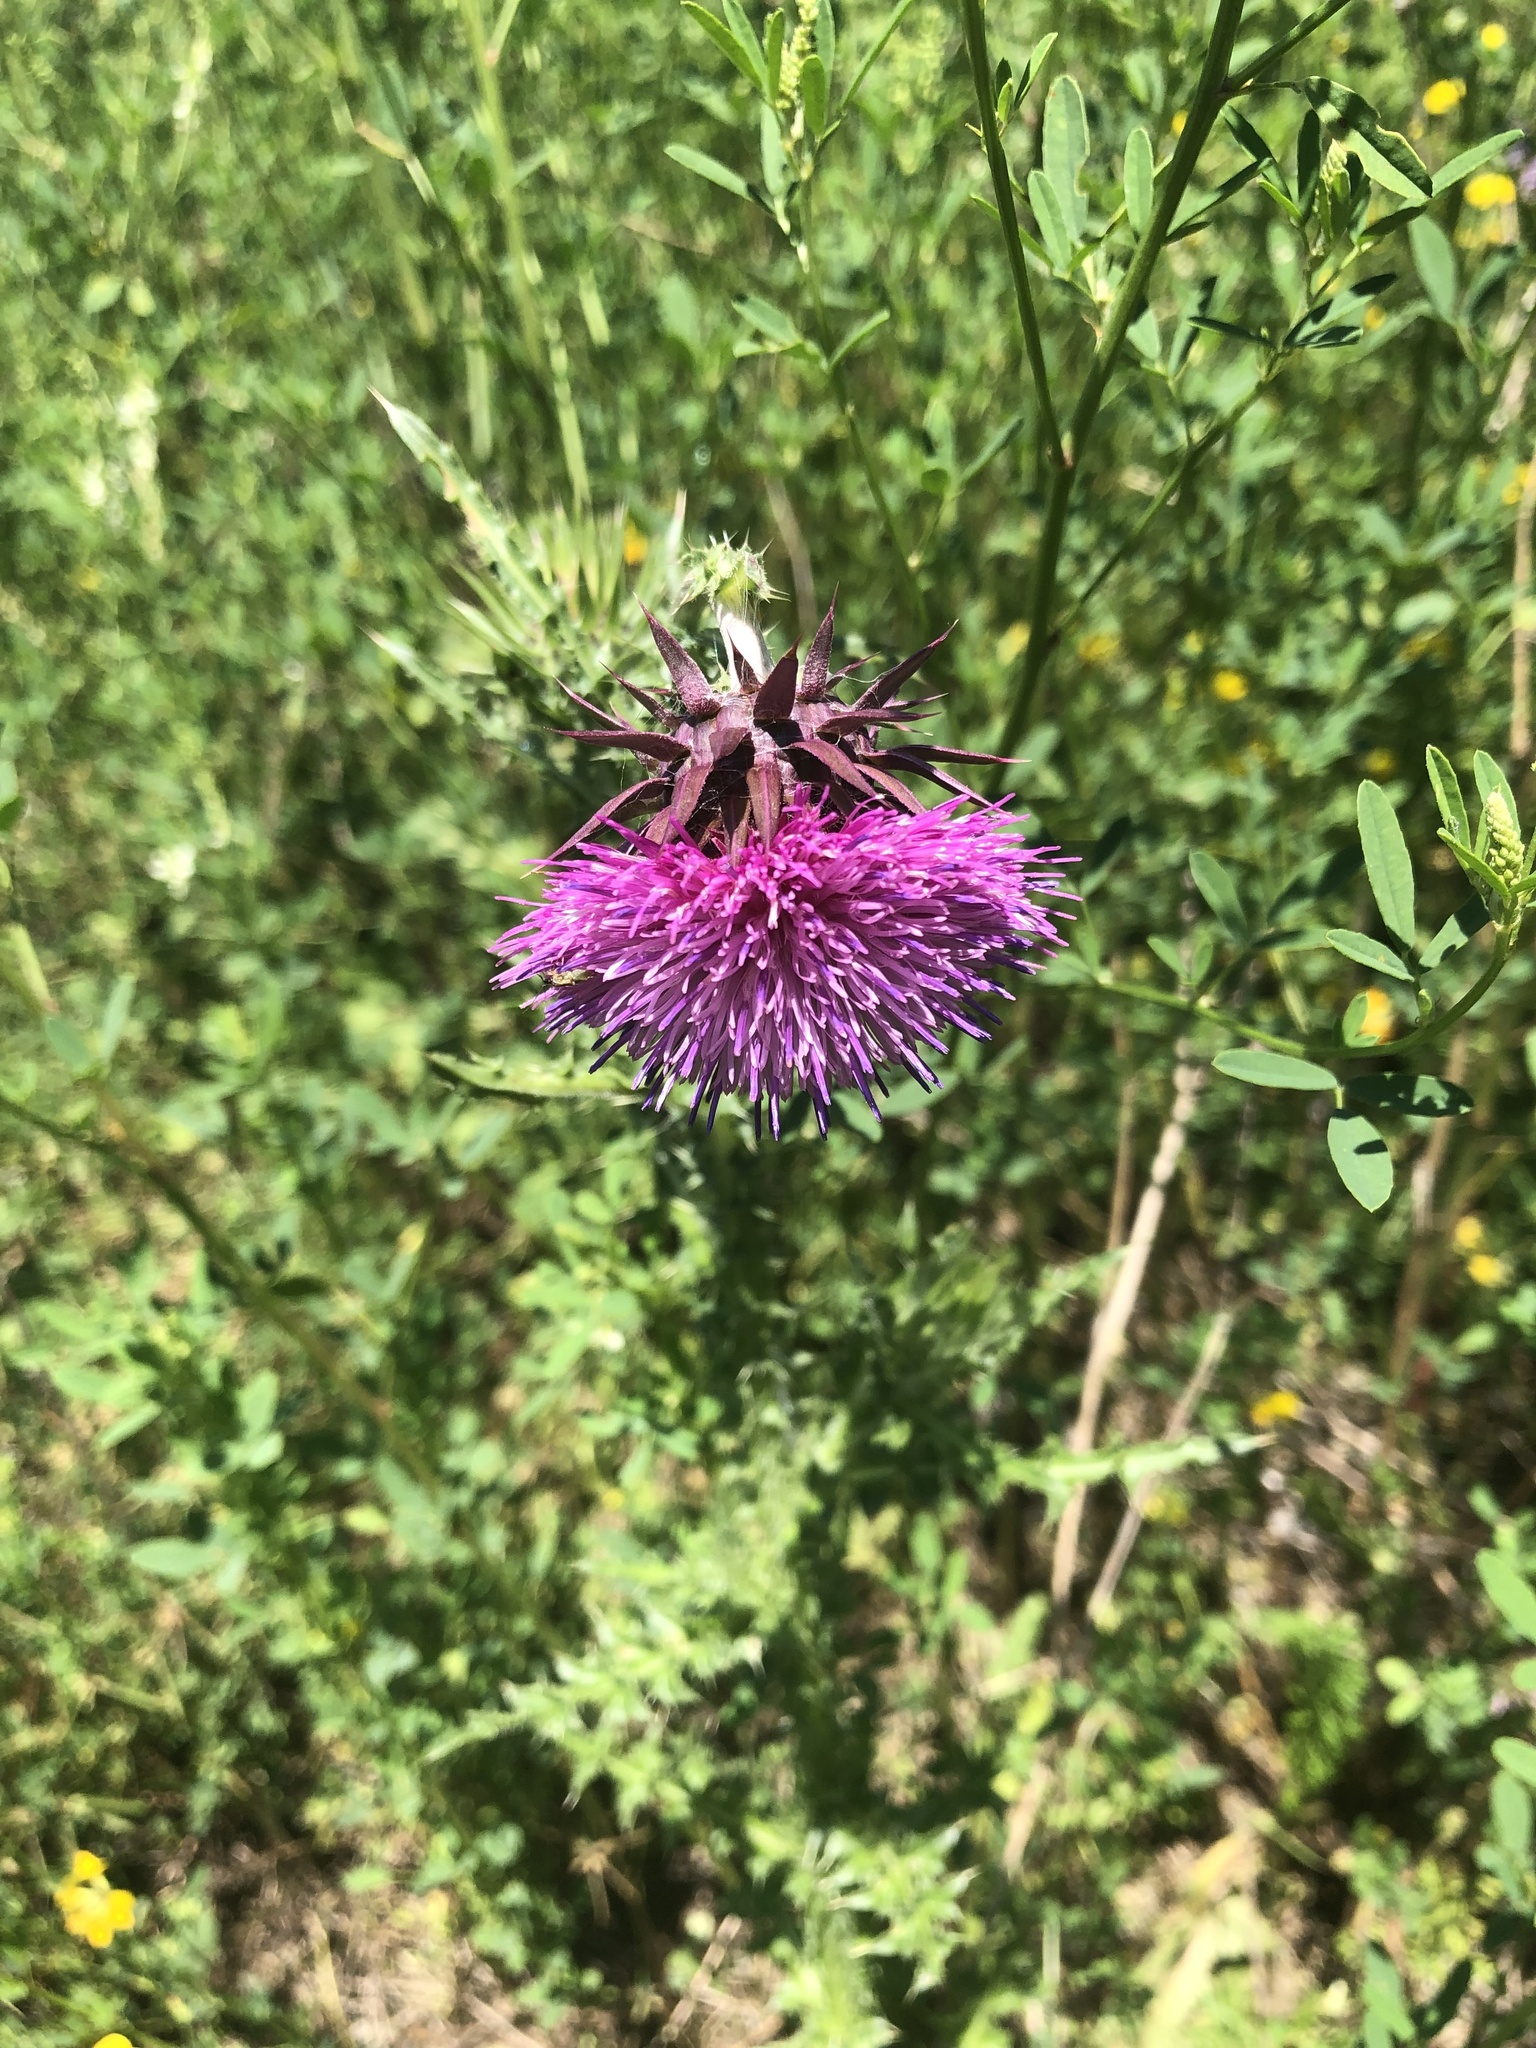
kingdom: Plantae
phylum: Tracheophyta
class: Magnoliopsida
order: Asterales
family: Asteraceae
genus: Carduus
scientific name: Carduus nutans
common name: Musk thistle
